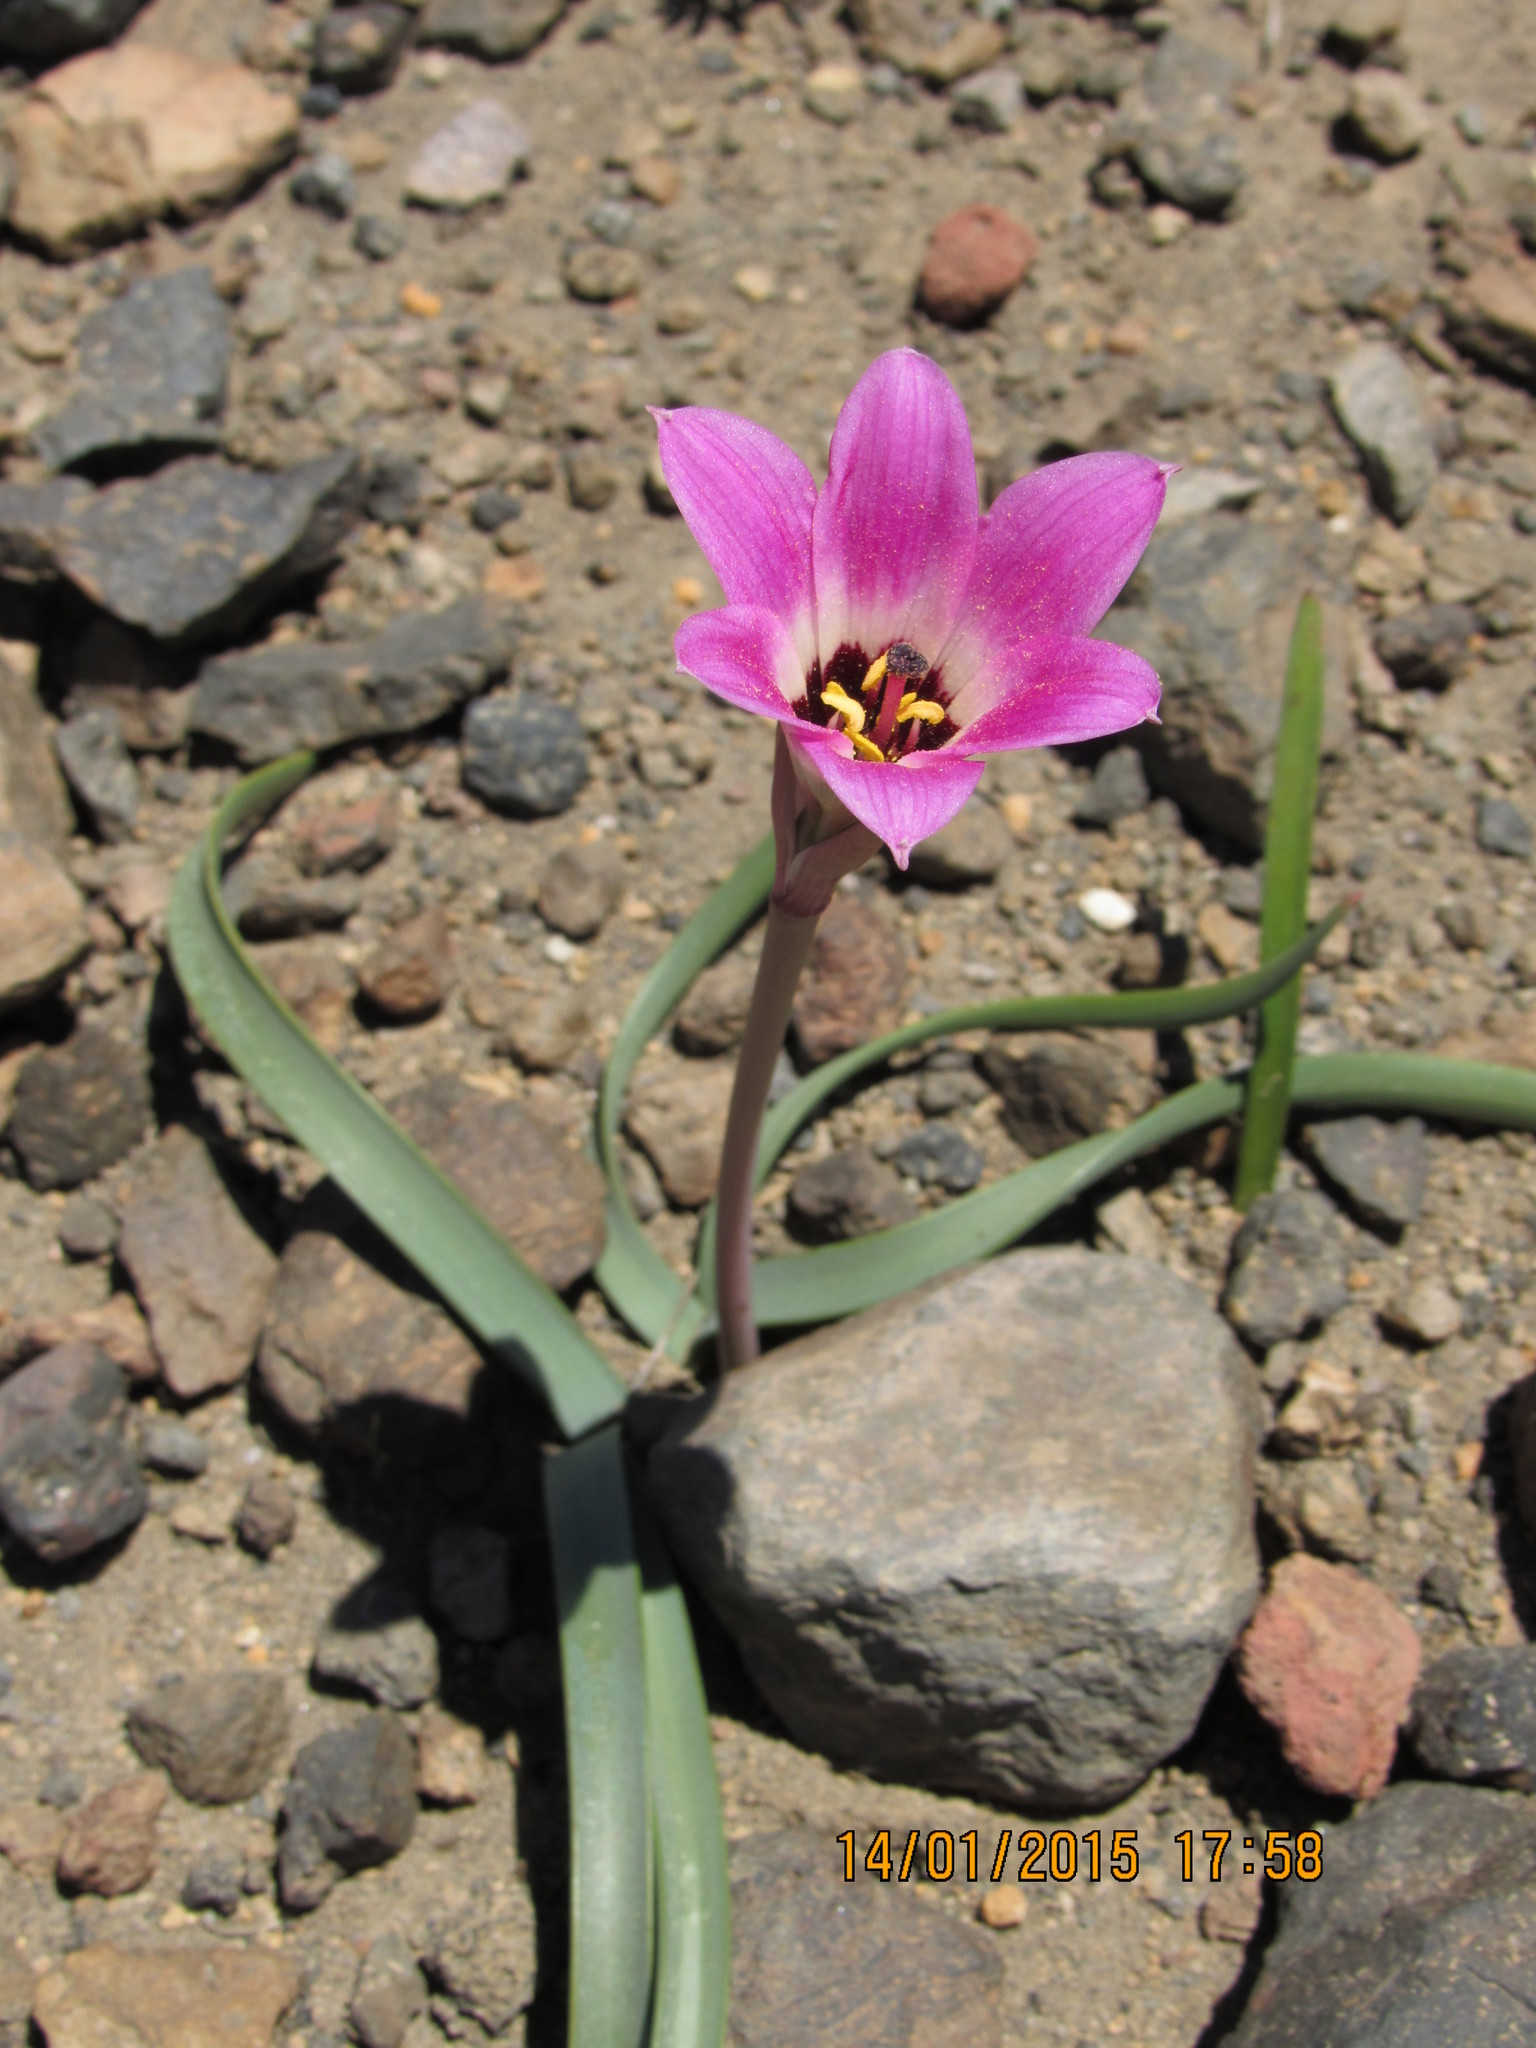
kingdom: Plantae
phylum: Tracheophyta
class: Liliopsida
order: Asparagales
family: Amaryllidaceae
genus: Rhodolirium
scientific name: Rhodolirium andicola
